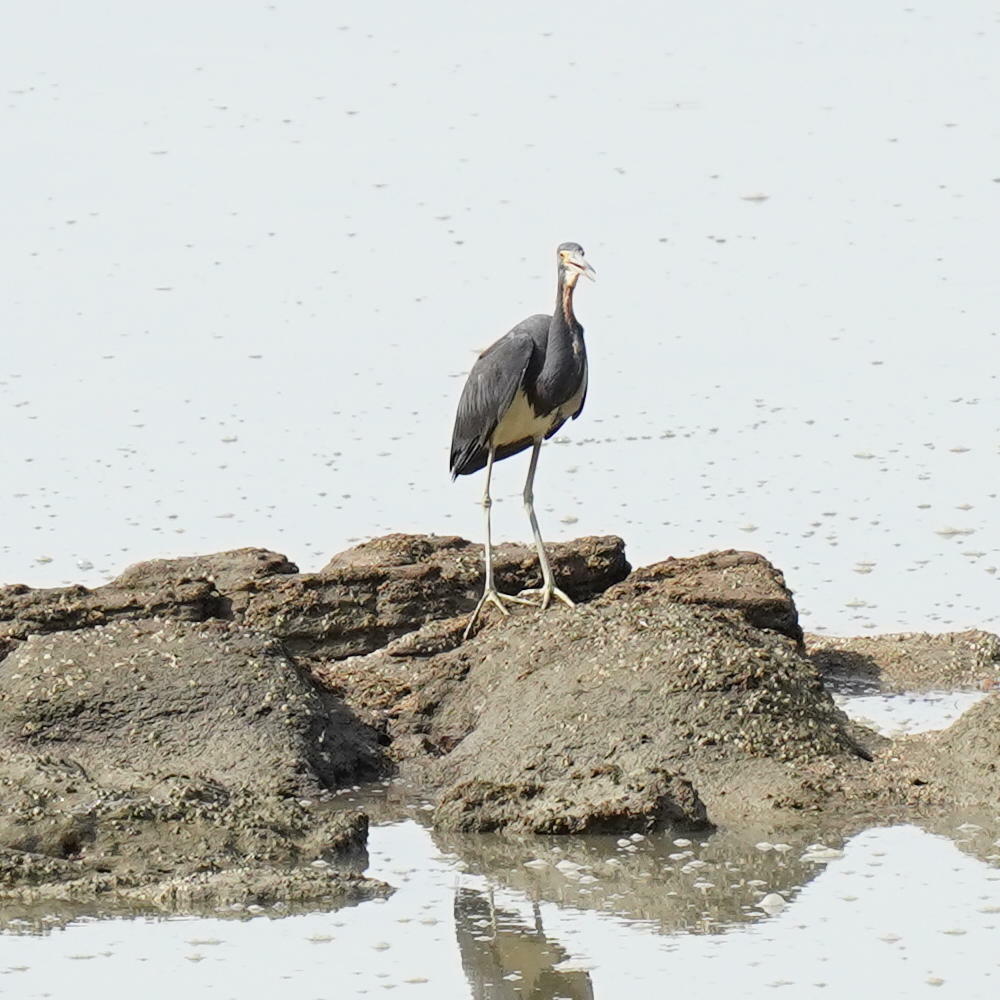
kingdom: Animalia
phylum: Chordata
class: Aves
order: Pelecaniformes
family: Ardeidae
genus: Egretta
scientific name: Egretta tricolor
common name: Tricolored heron
